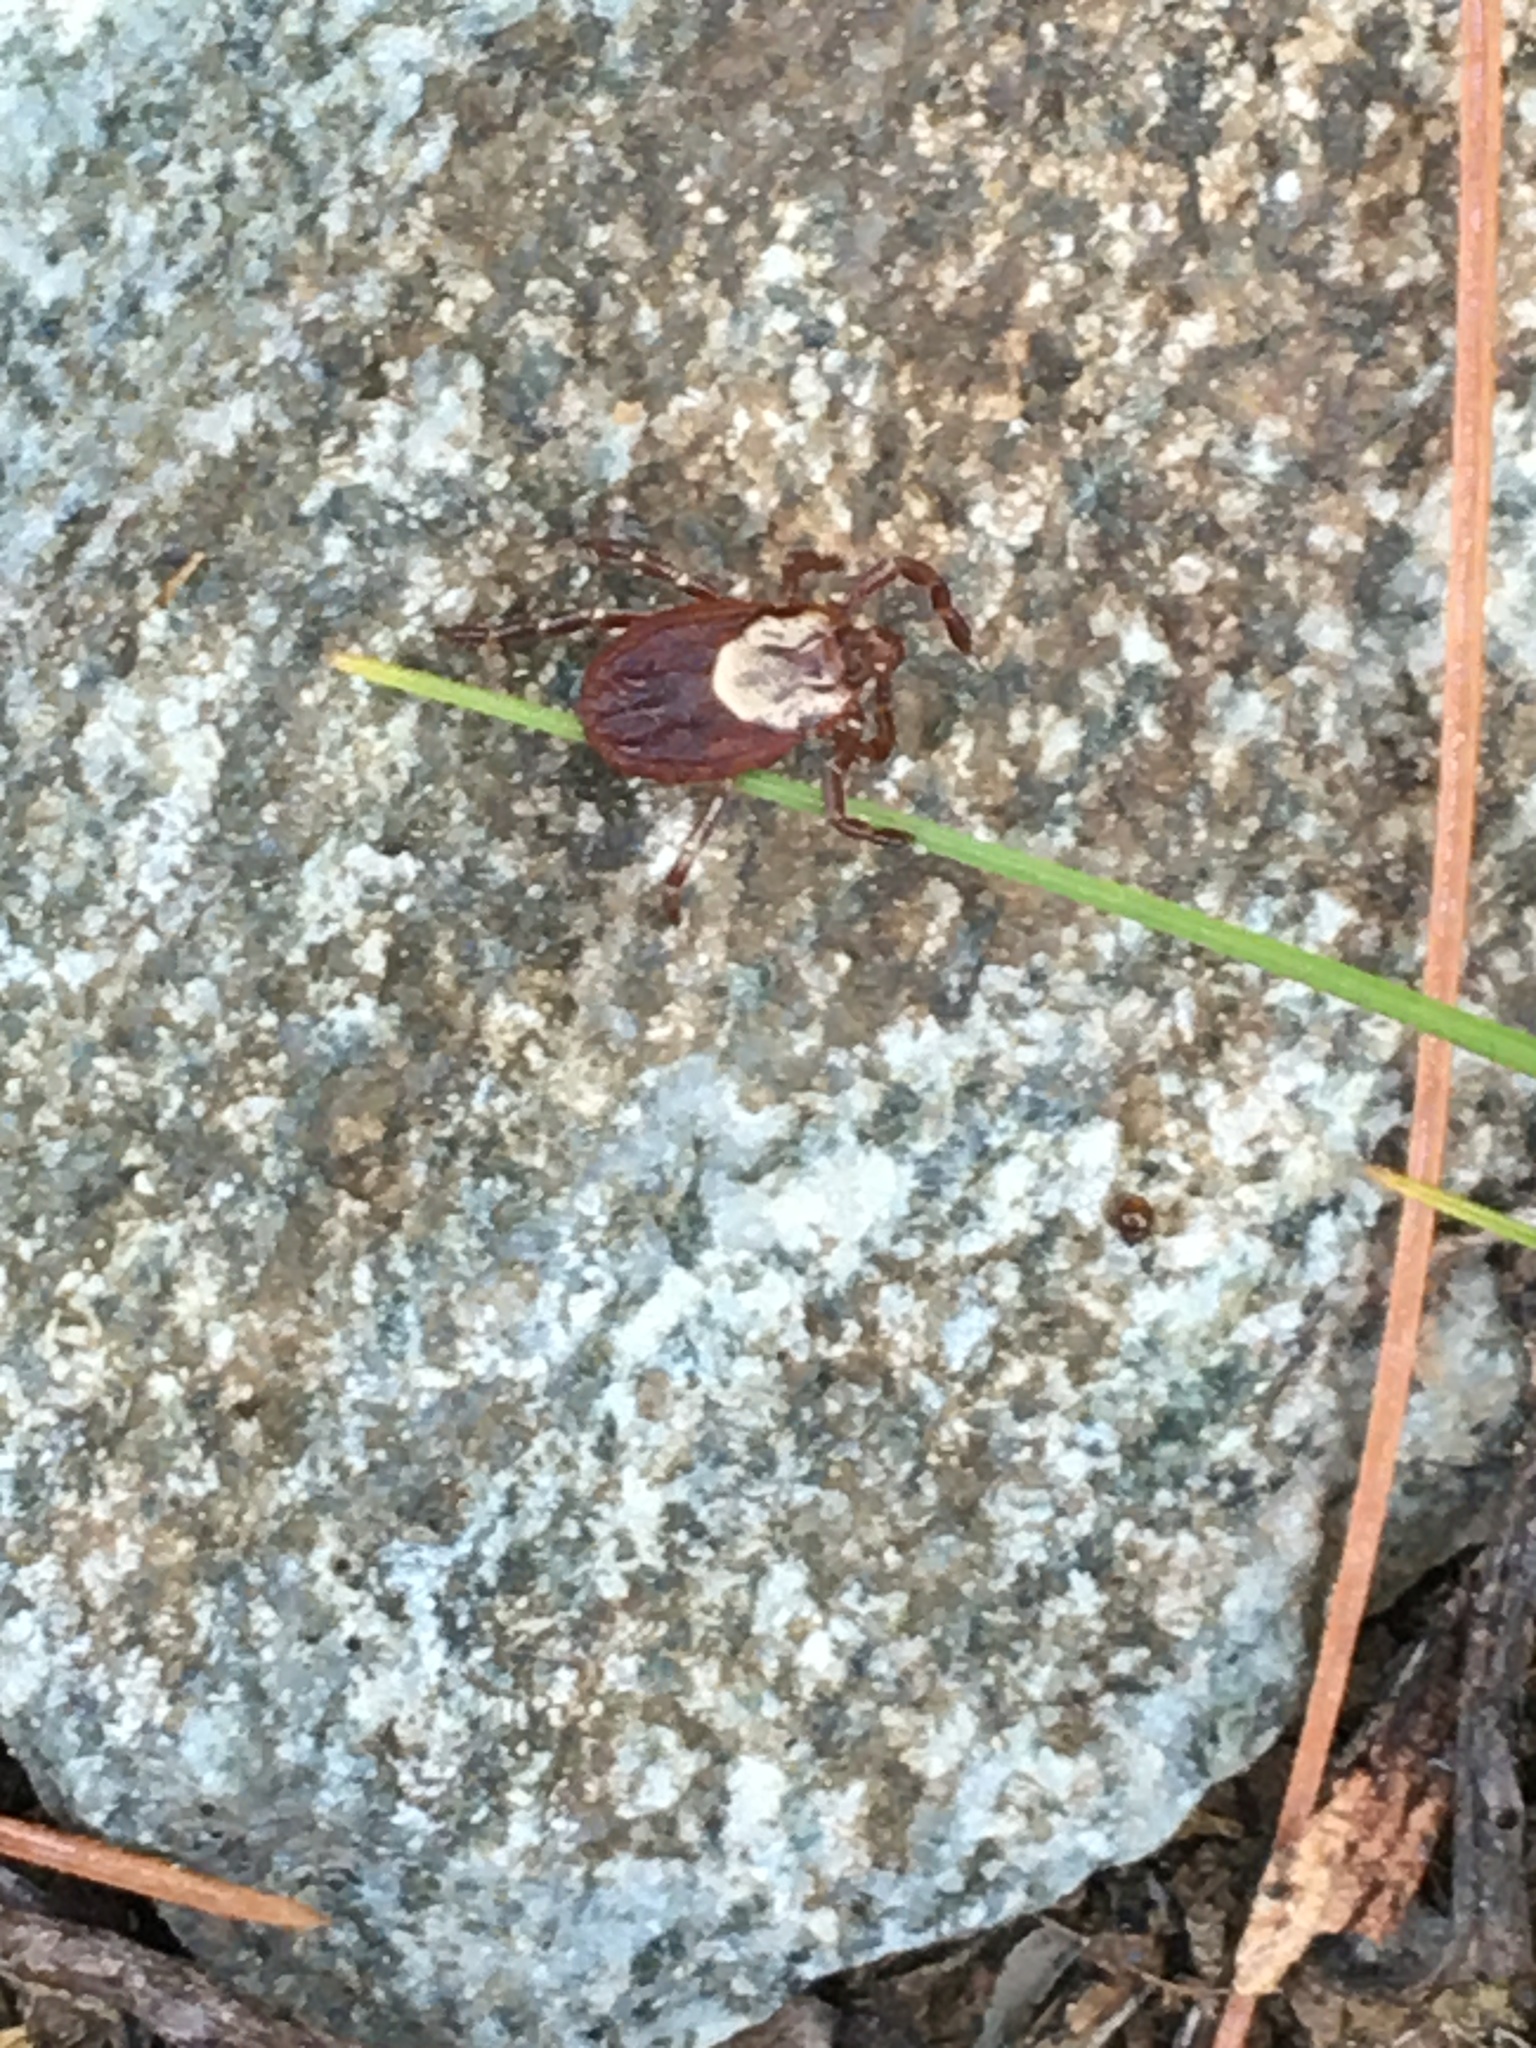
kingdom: Animalia
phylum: Arthropoda
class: Arachnida
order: Ixodida
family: Ixodidae
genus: Dermacentor
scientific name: Dermacentor variabilis
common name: American dog tick
